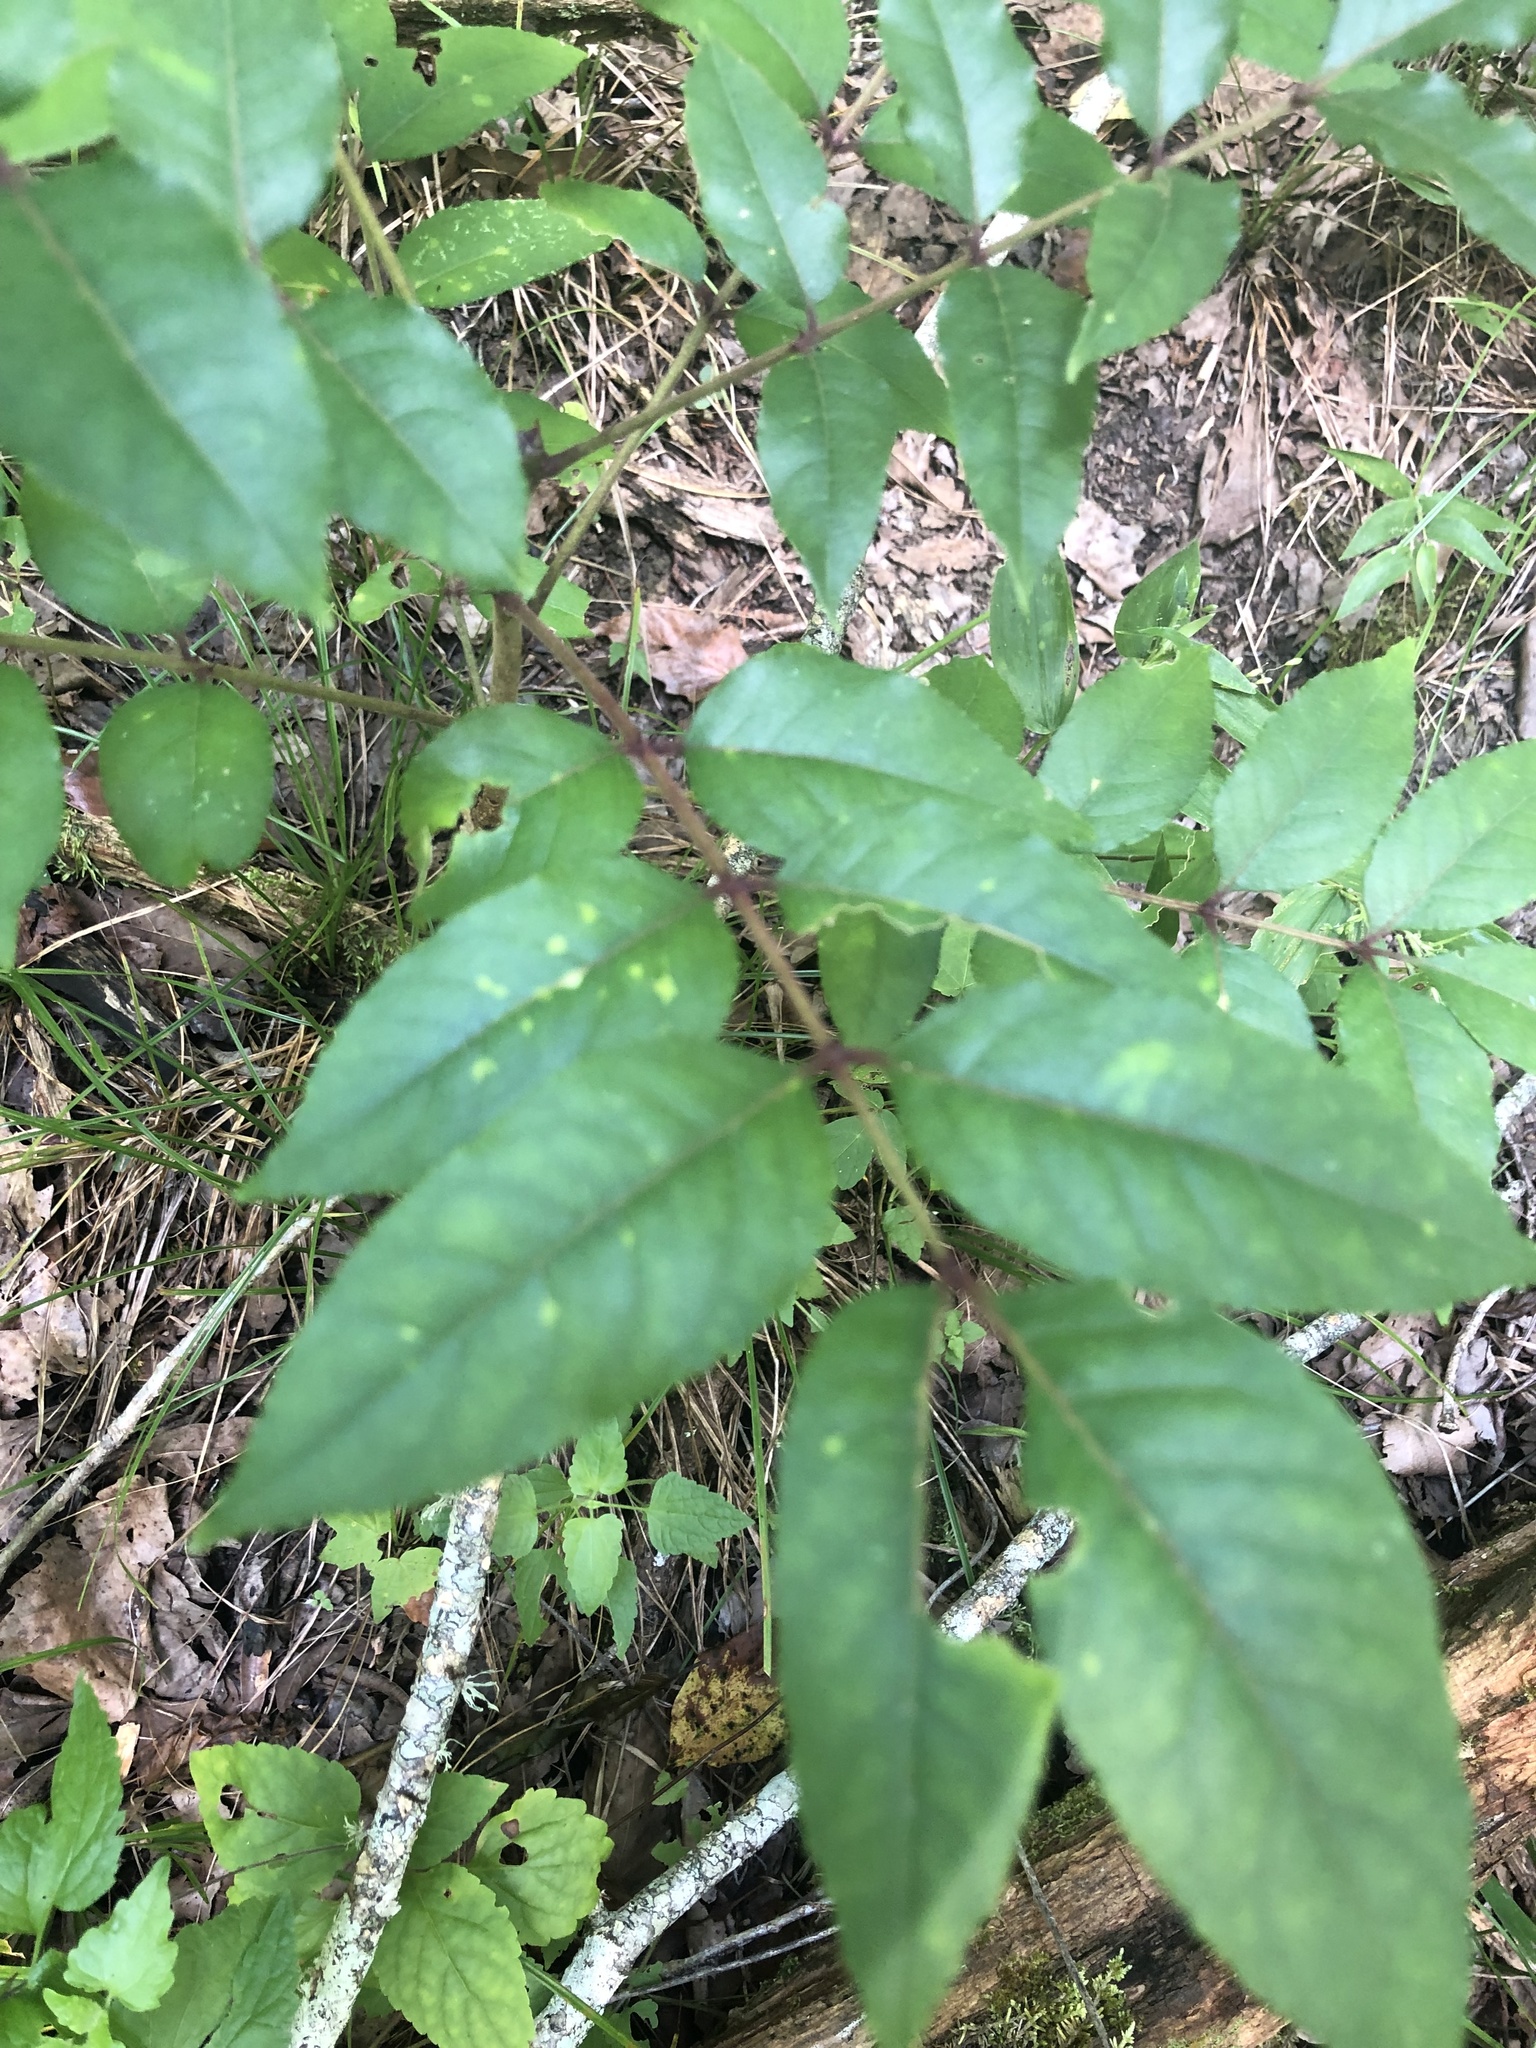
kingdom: Plantae
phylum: Tracheophyta
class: Magnoliopsida
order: Sapindales
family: Rutaceae
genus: Zanthoxylum
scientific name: Zanthoxylum clava-herculis
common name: Hercules'-club
